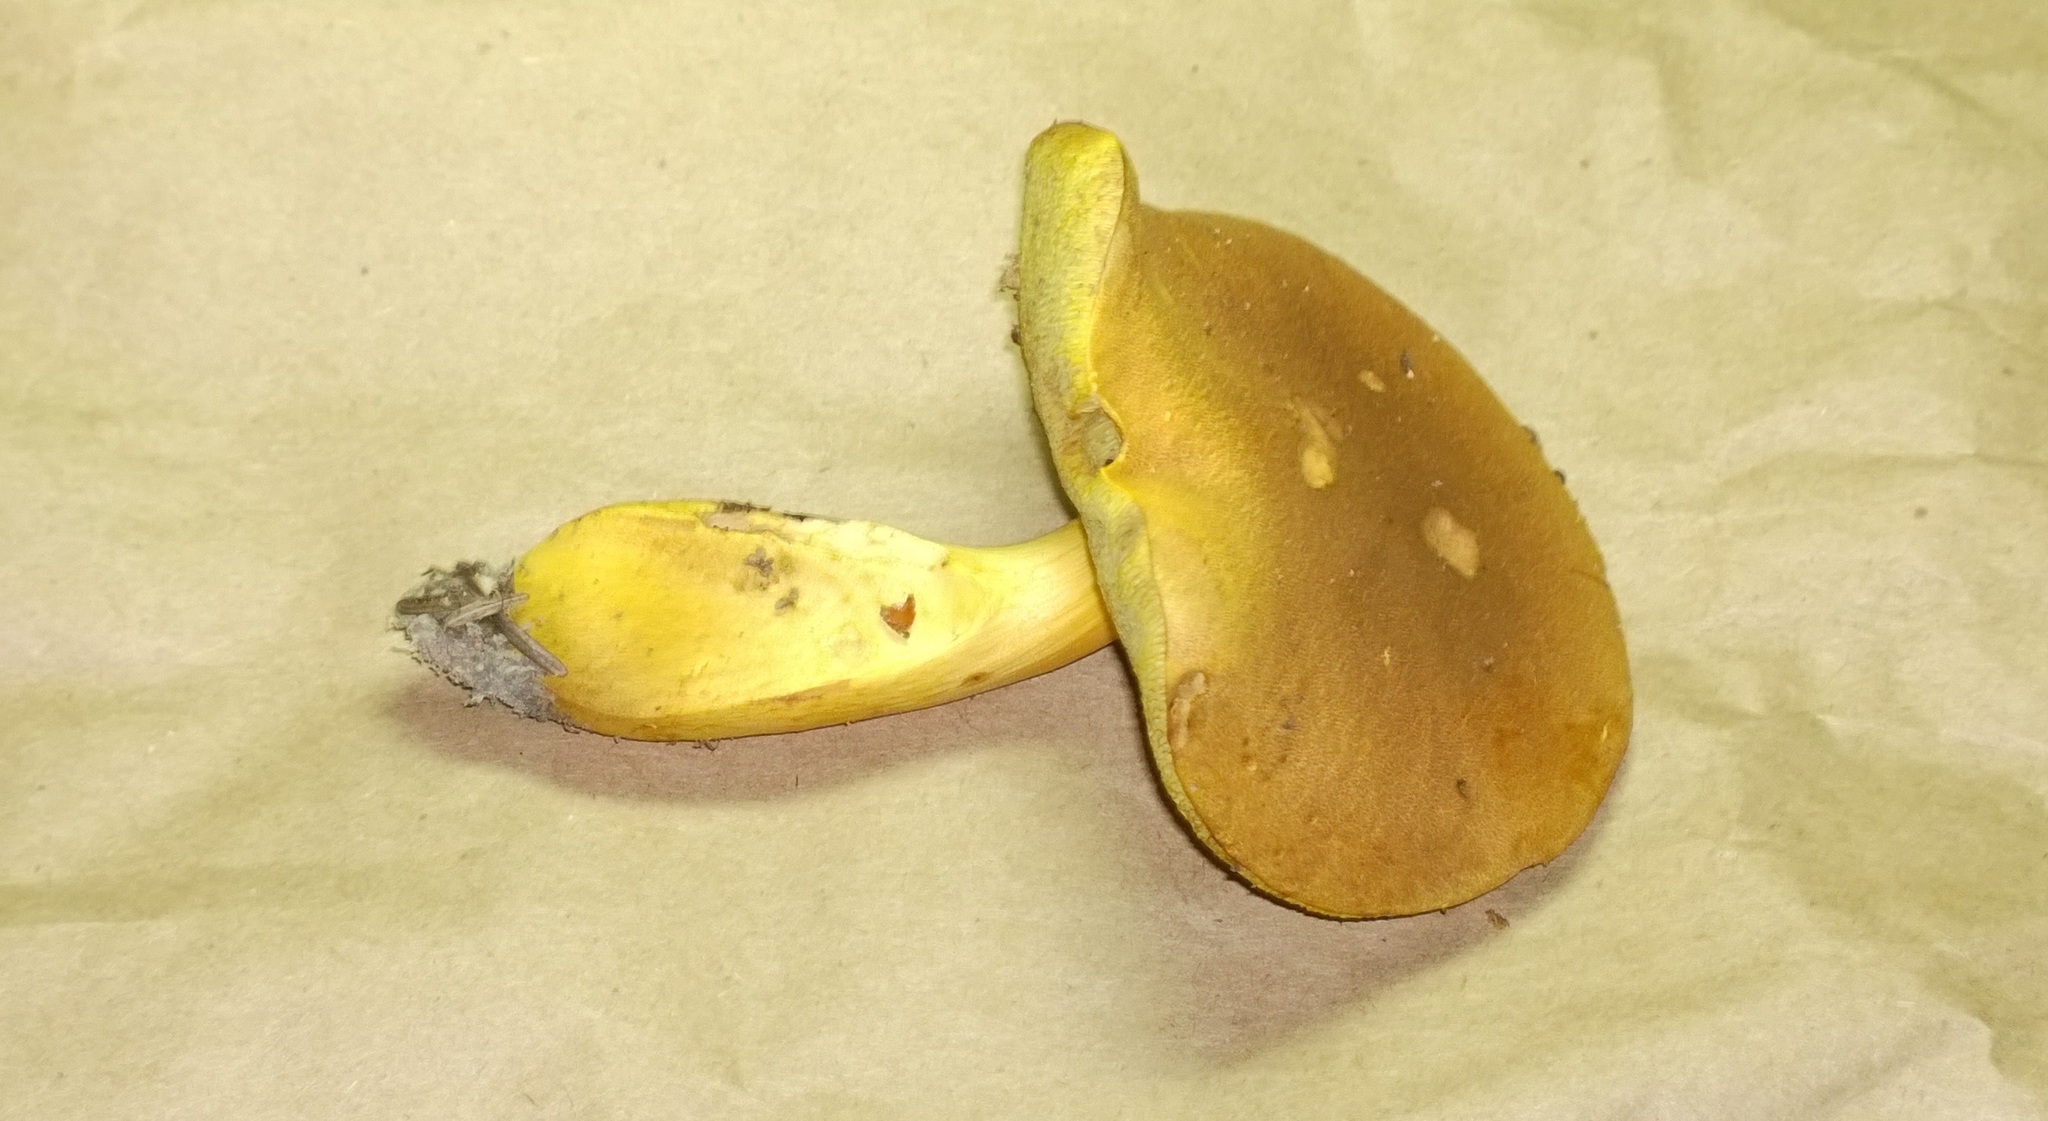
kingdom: Fungi
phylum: Basidiomycota
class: Agaricomycetes
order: Boletales
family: Boletaceae
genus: Aureoboletus
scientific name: Aureoboletus roxanae
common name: Roxane's bolete
